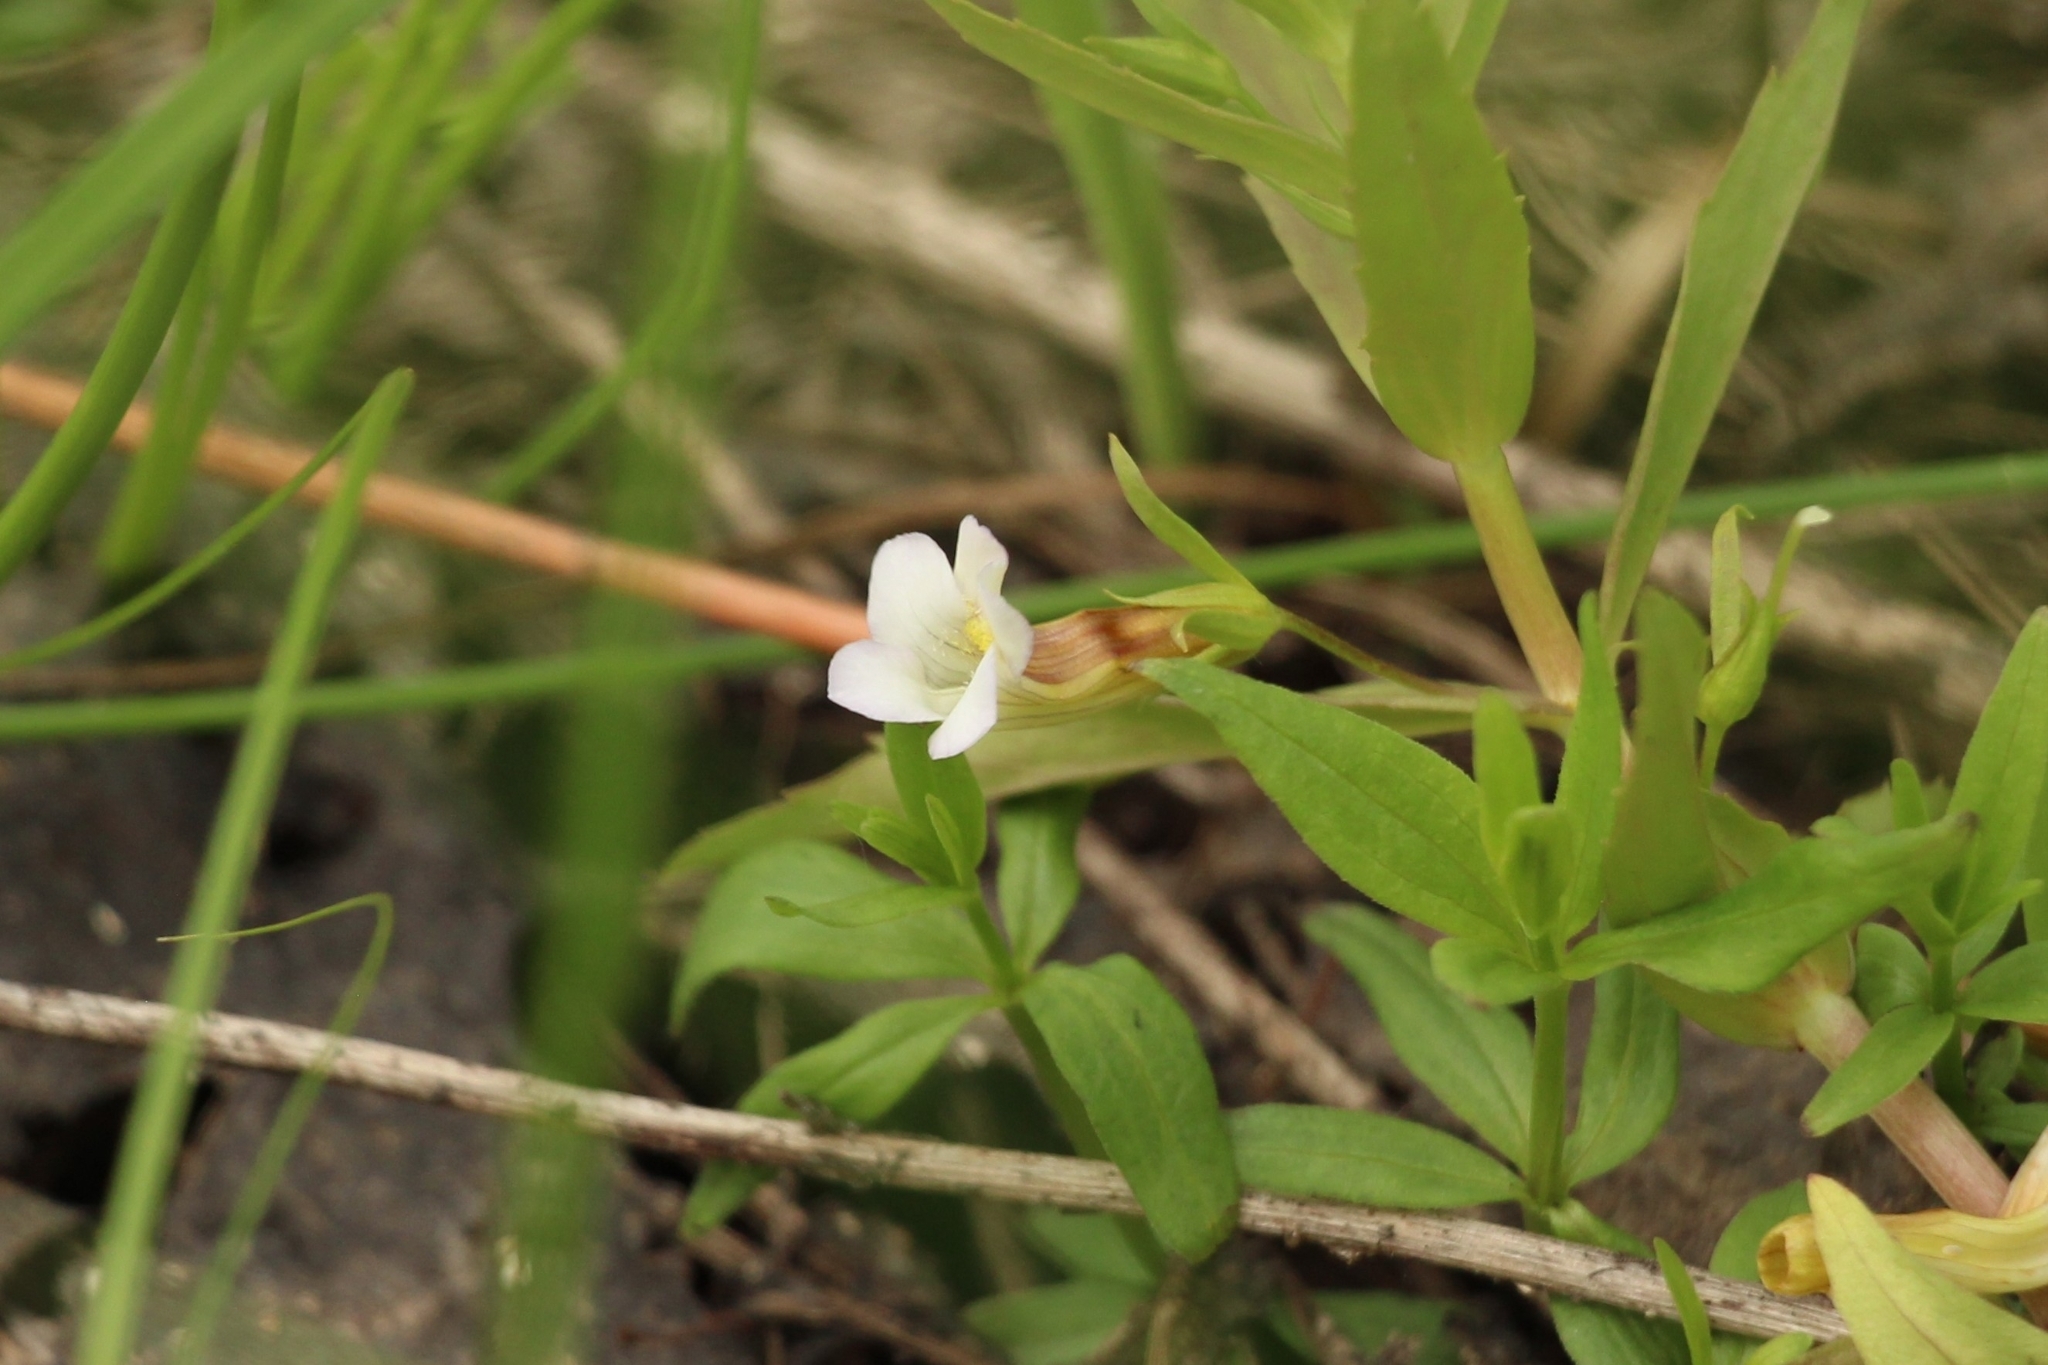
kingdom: Plantae
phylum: Tracheophyta
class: Magnoliopsida
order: Lamiales
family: Plantaginaceae
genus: Gratiola
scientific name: Gratiola officinalis
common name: Gratiola
